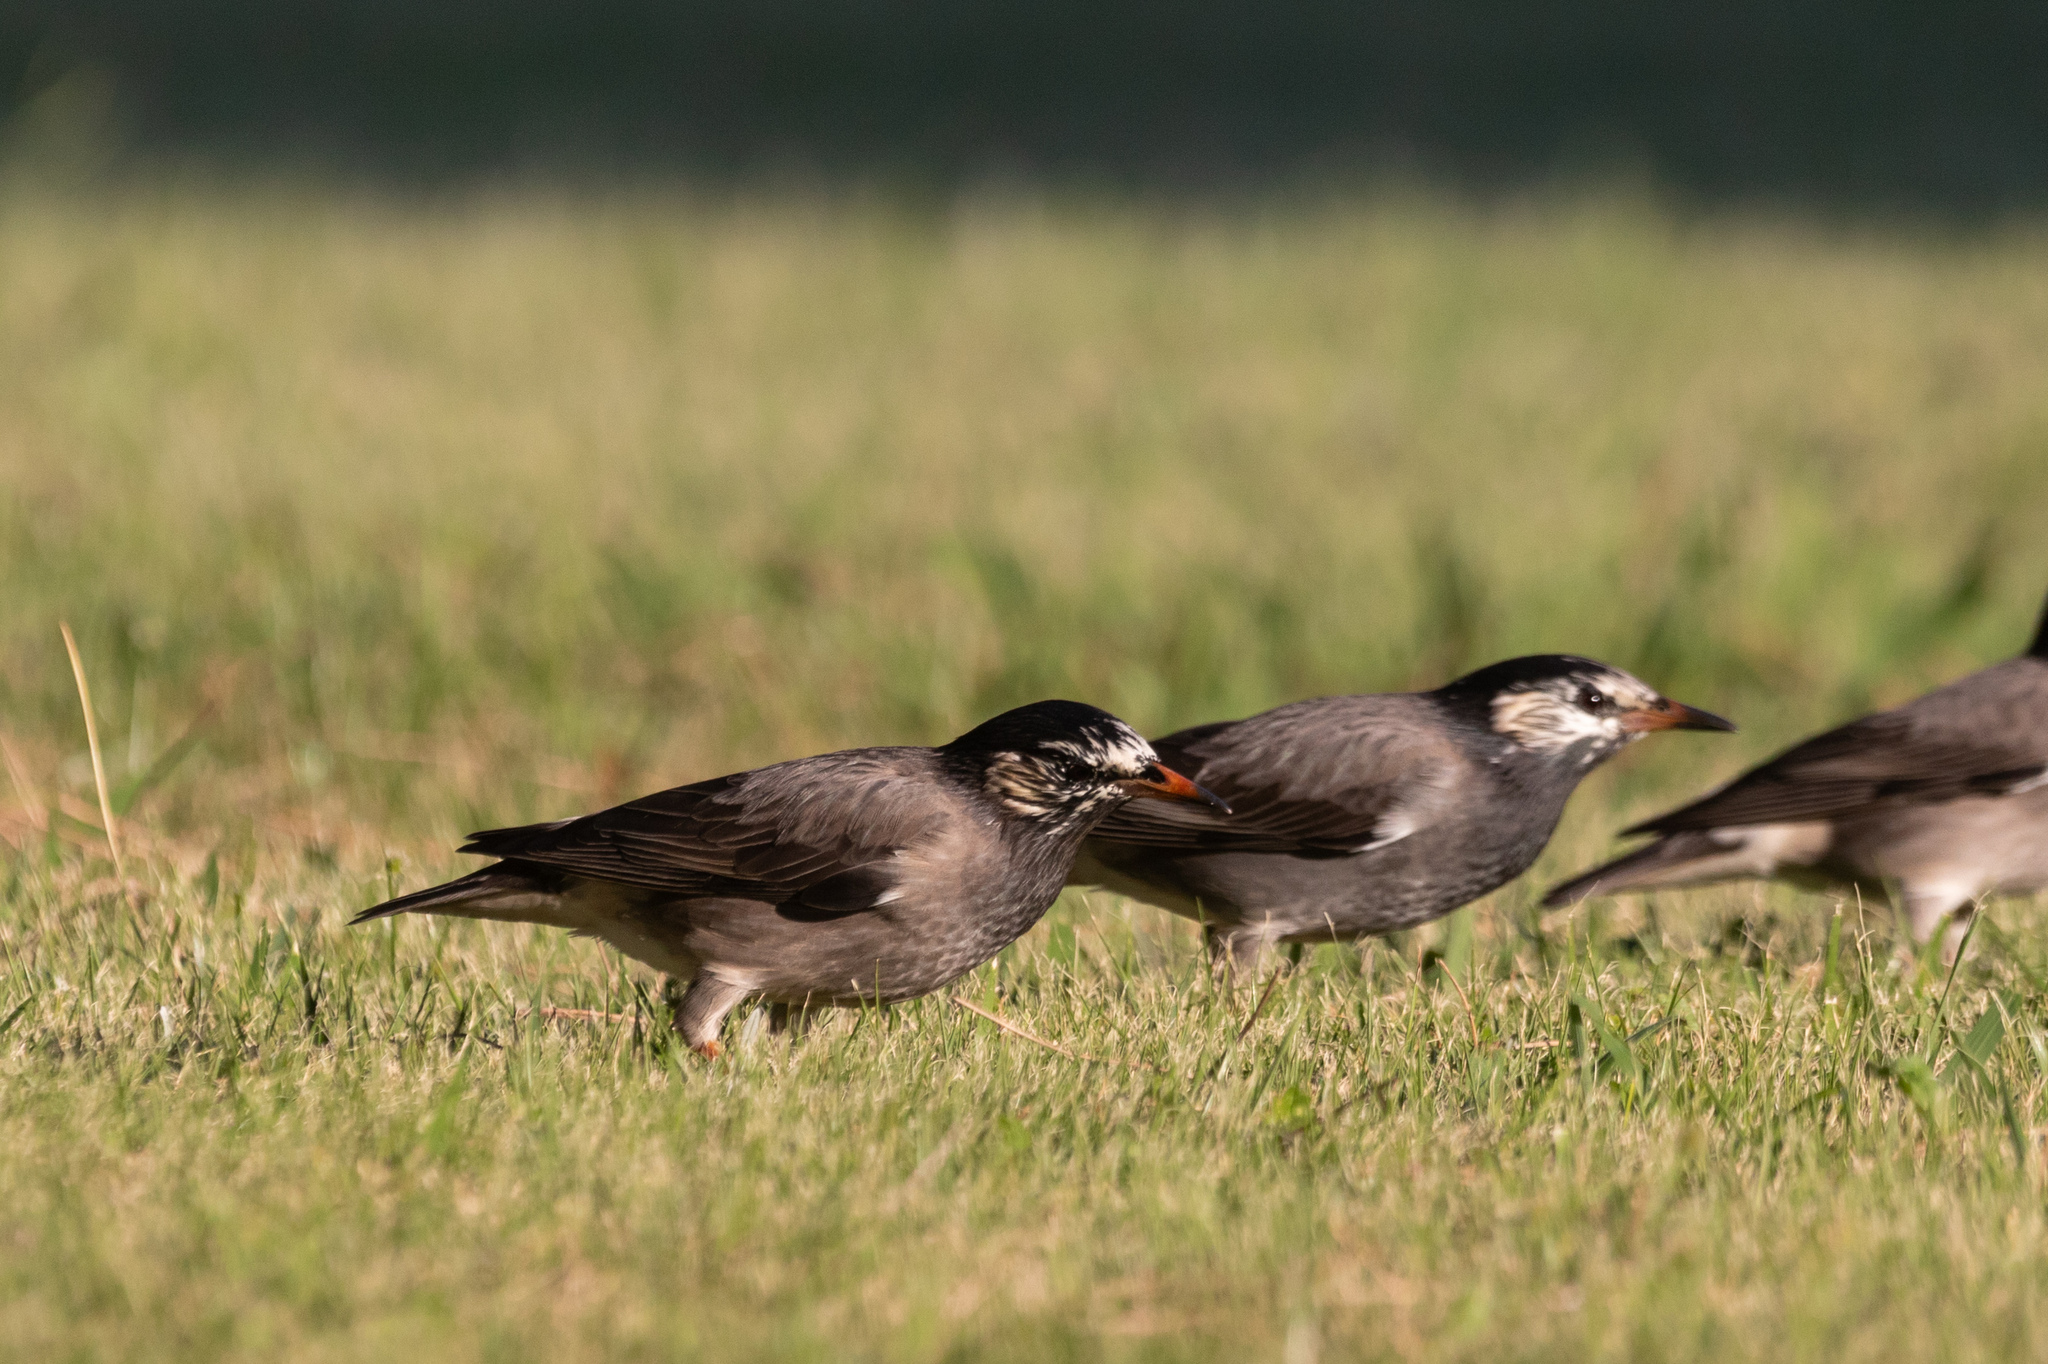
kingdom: Animalia
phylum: Chordata
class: Aves
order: Passeriformes
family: Sturnidae
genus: Spodiopsar
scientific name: Spodiopsar cineraceus
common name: White-cheeked starling
